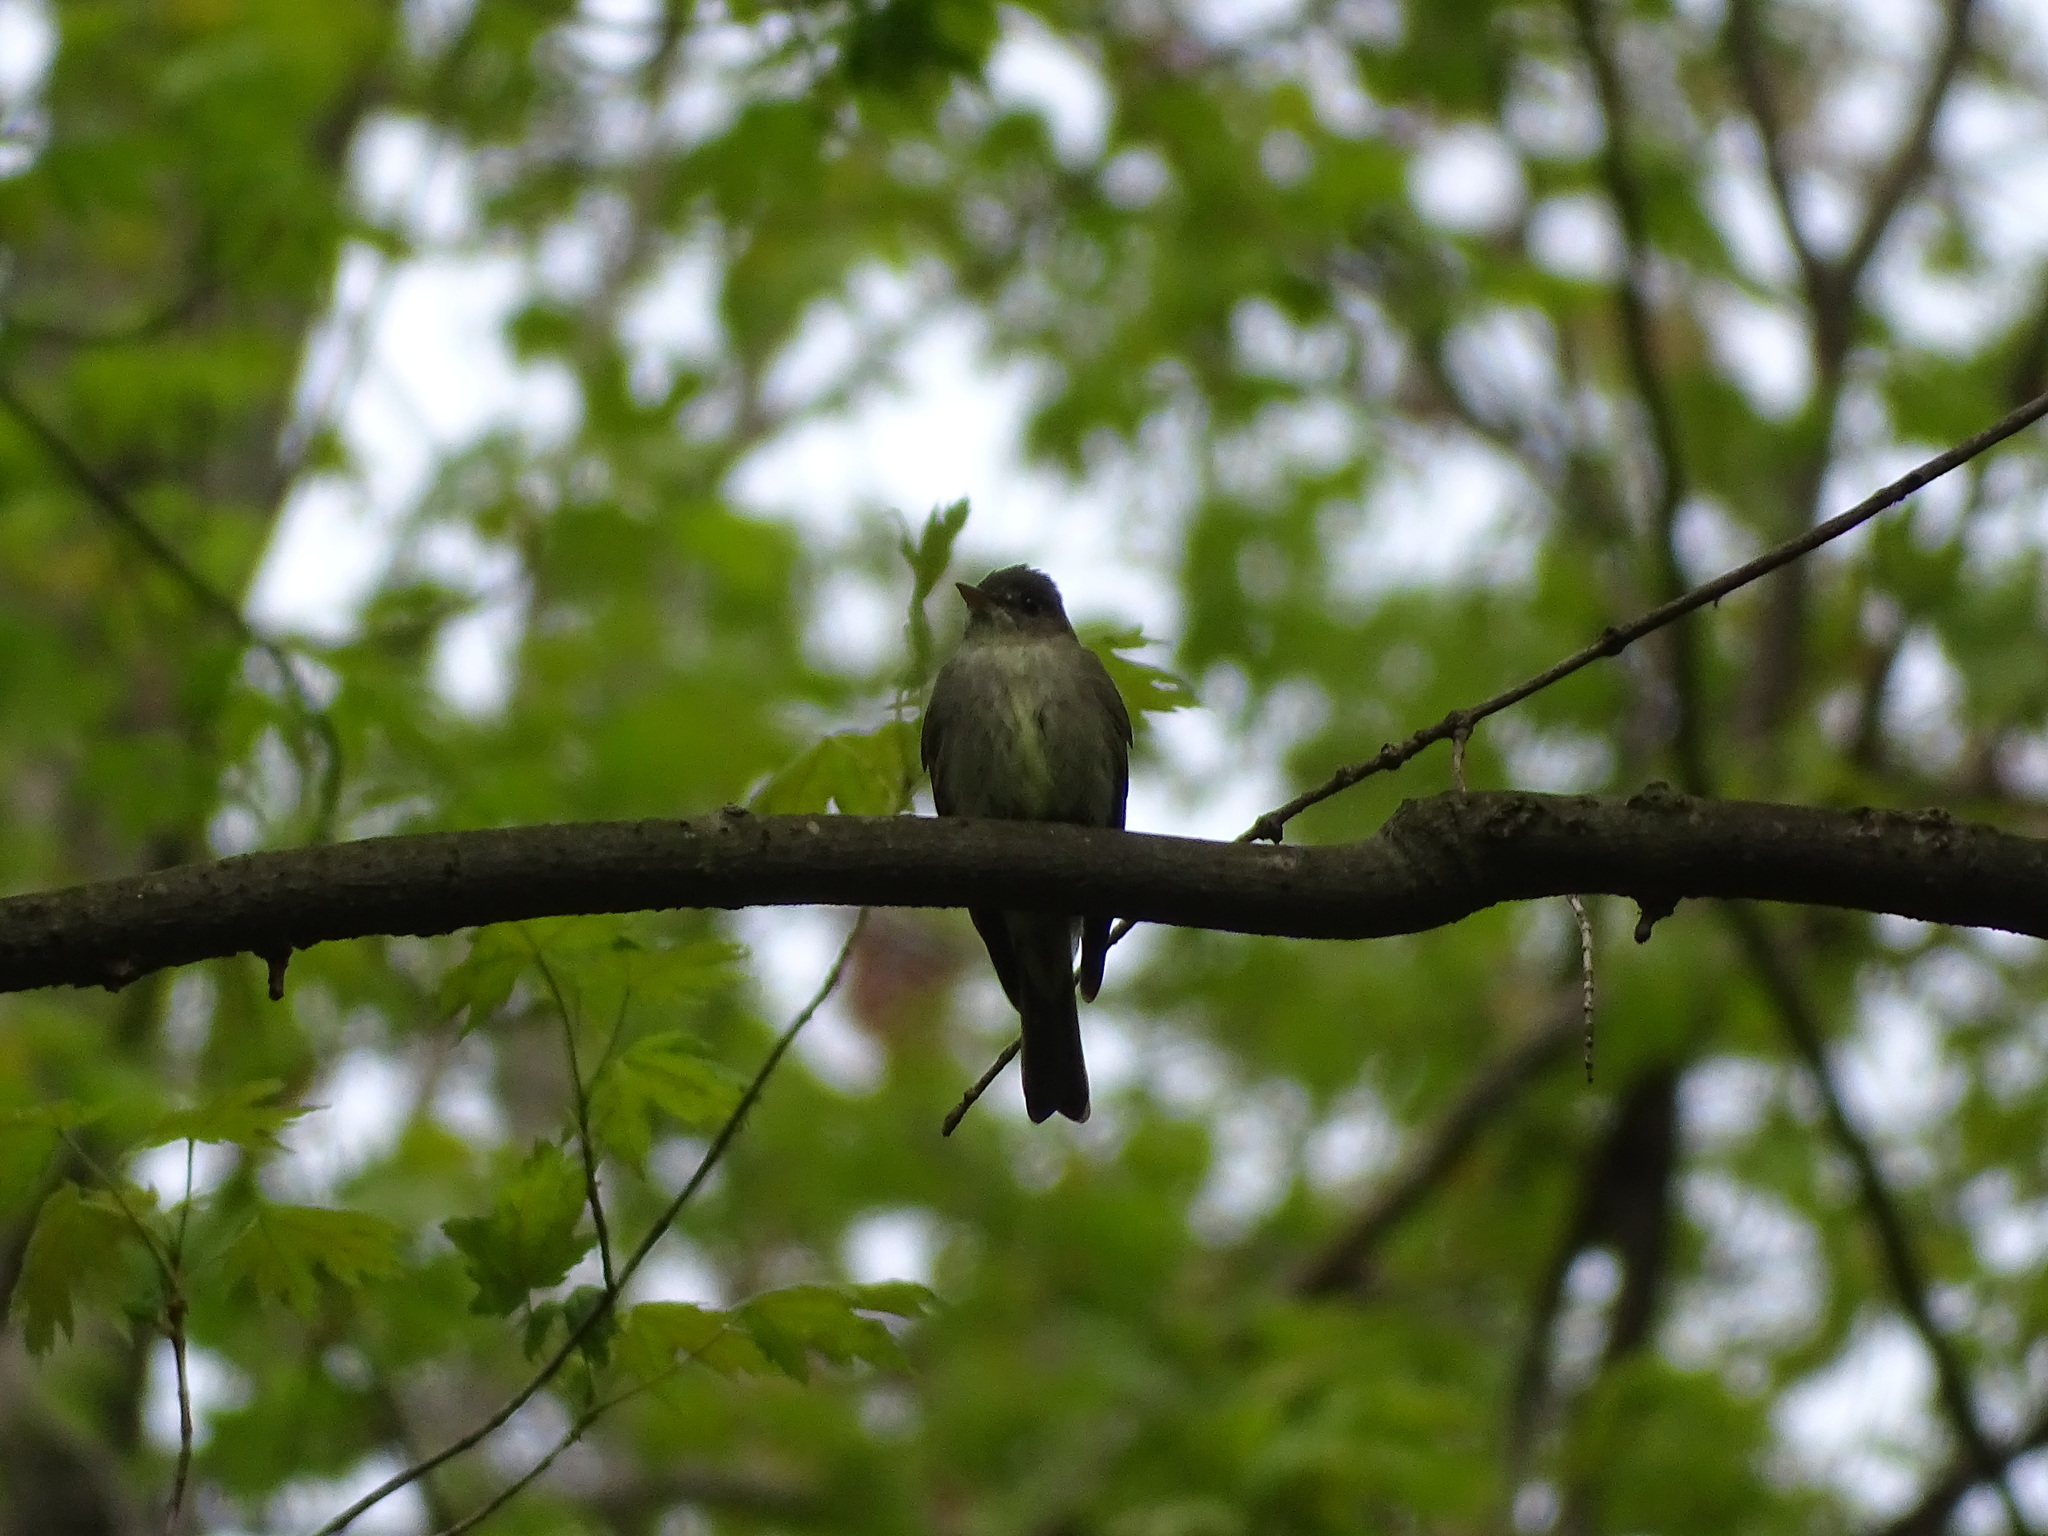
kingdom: Animalia
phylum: Chordata
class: Aves
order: Passeriformes
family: Tyrannidae
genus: Contopus
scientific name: Contopus virens
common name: Eastern wood-pewee
